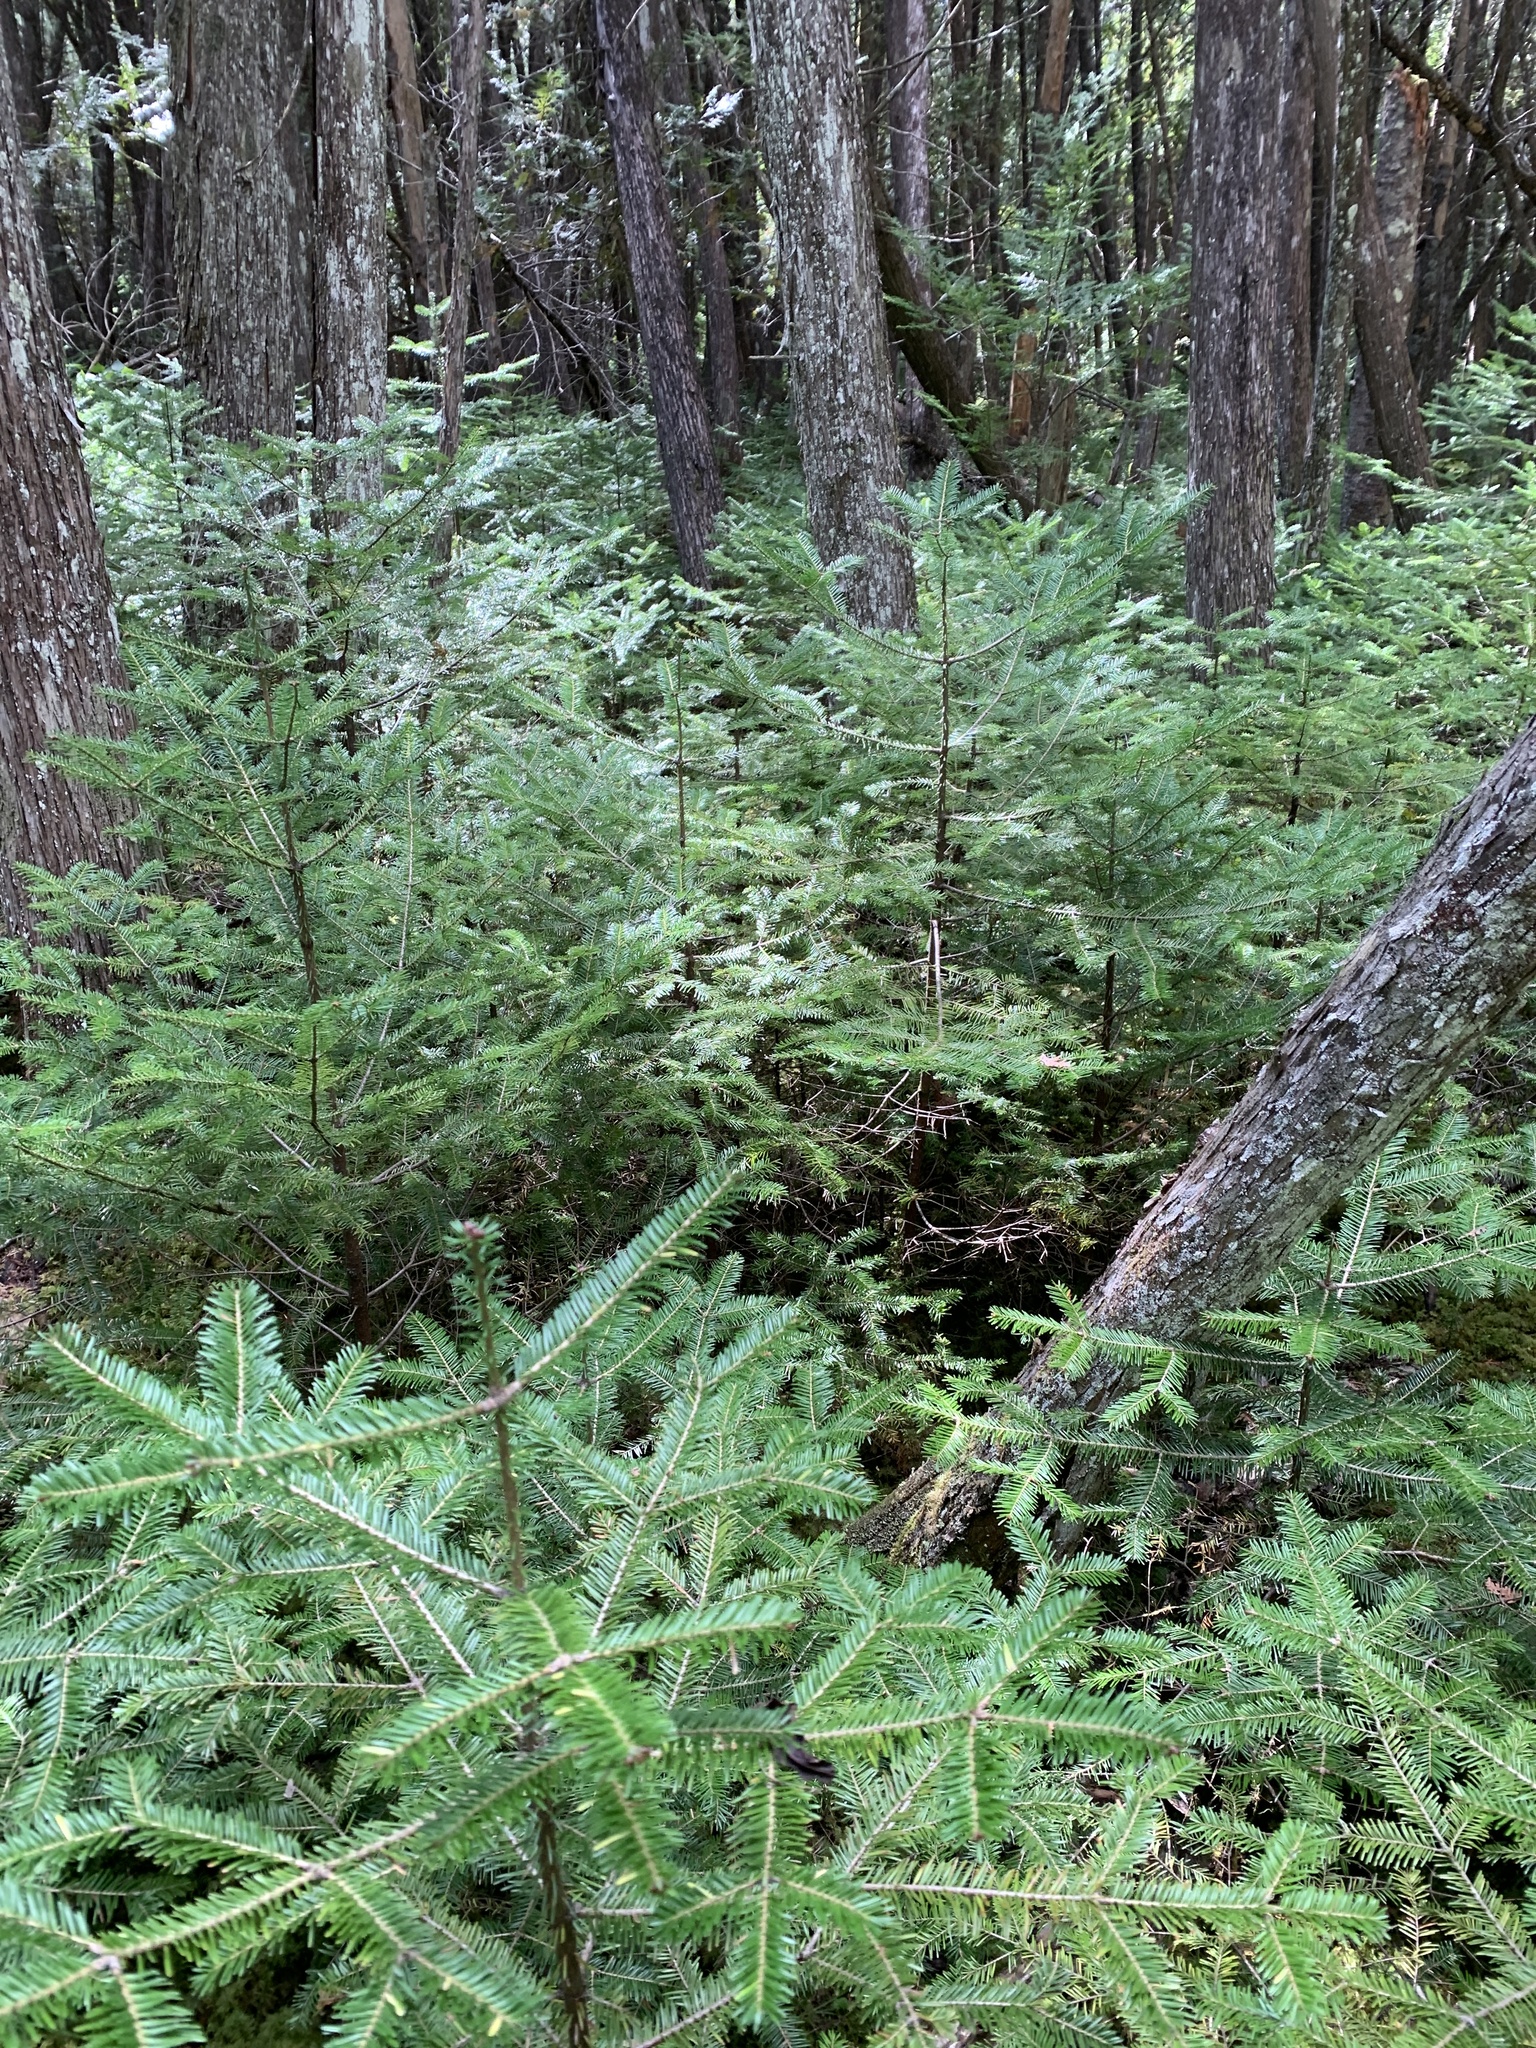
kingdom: Plantae
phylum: Tracheophyta
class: Pinopsida
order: Pinales
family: Pinaceae
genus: Abies
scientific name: Abies balsamea
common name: Balsam fir
